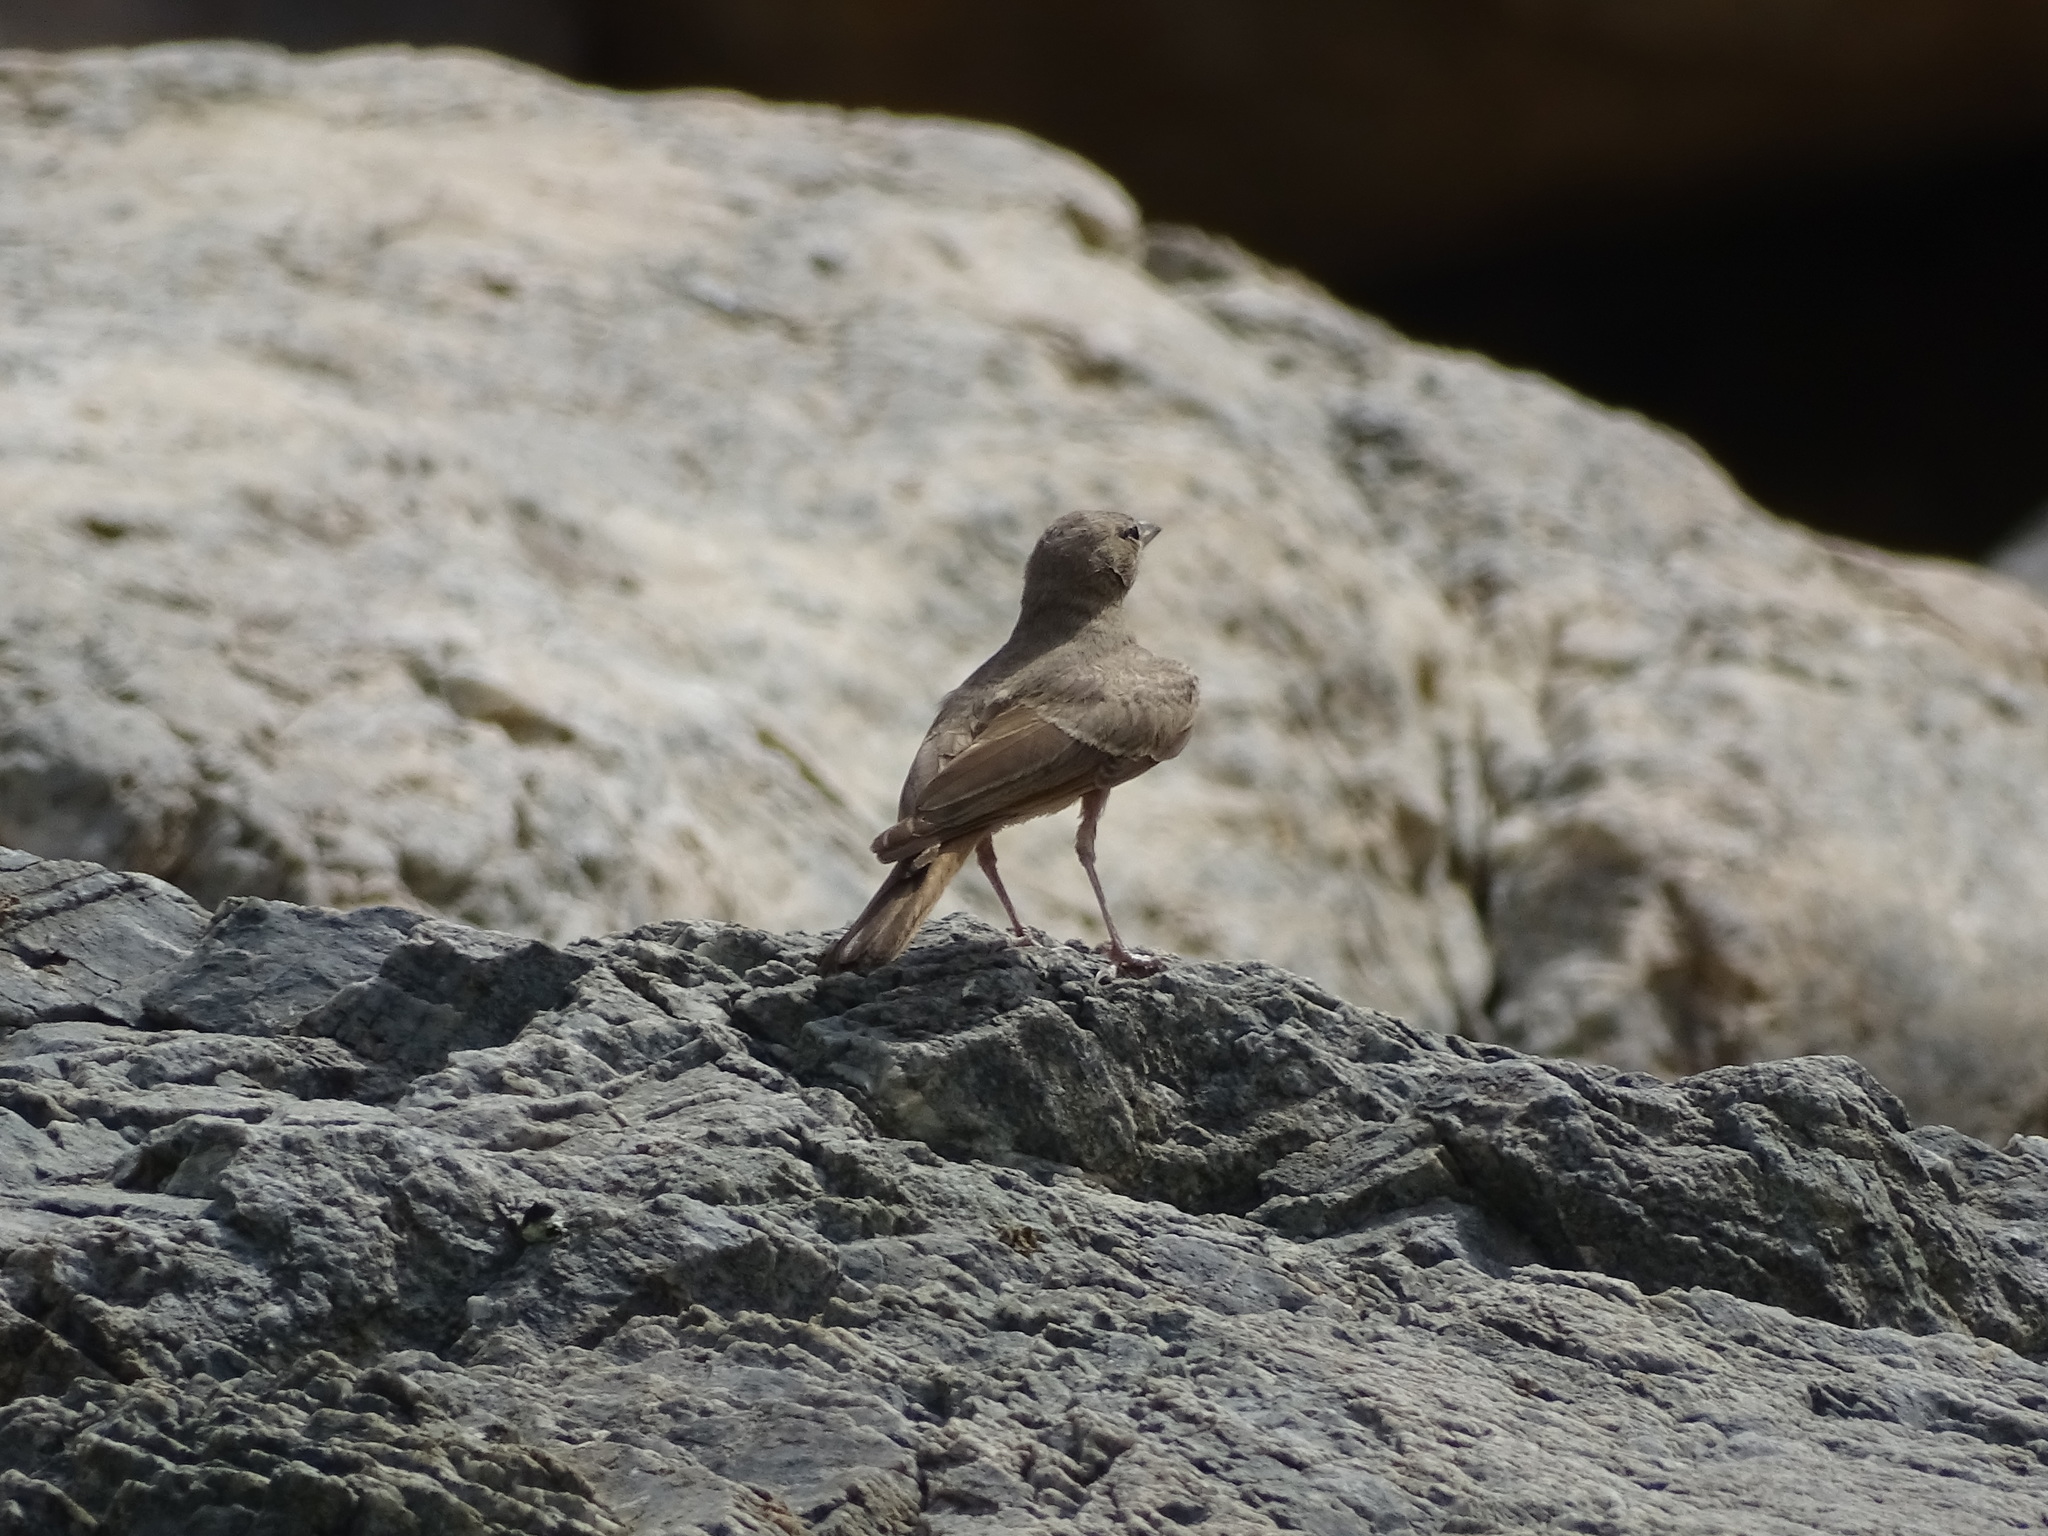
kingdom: Animalia
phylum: Chordata
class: Aves
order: Passeriformes
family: Alaudidae
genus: Ammomanes
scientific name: Ammomanes deserti
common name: Desert lark
